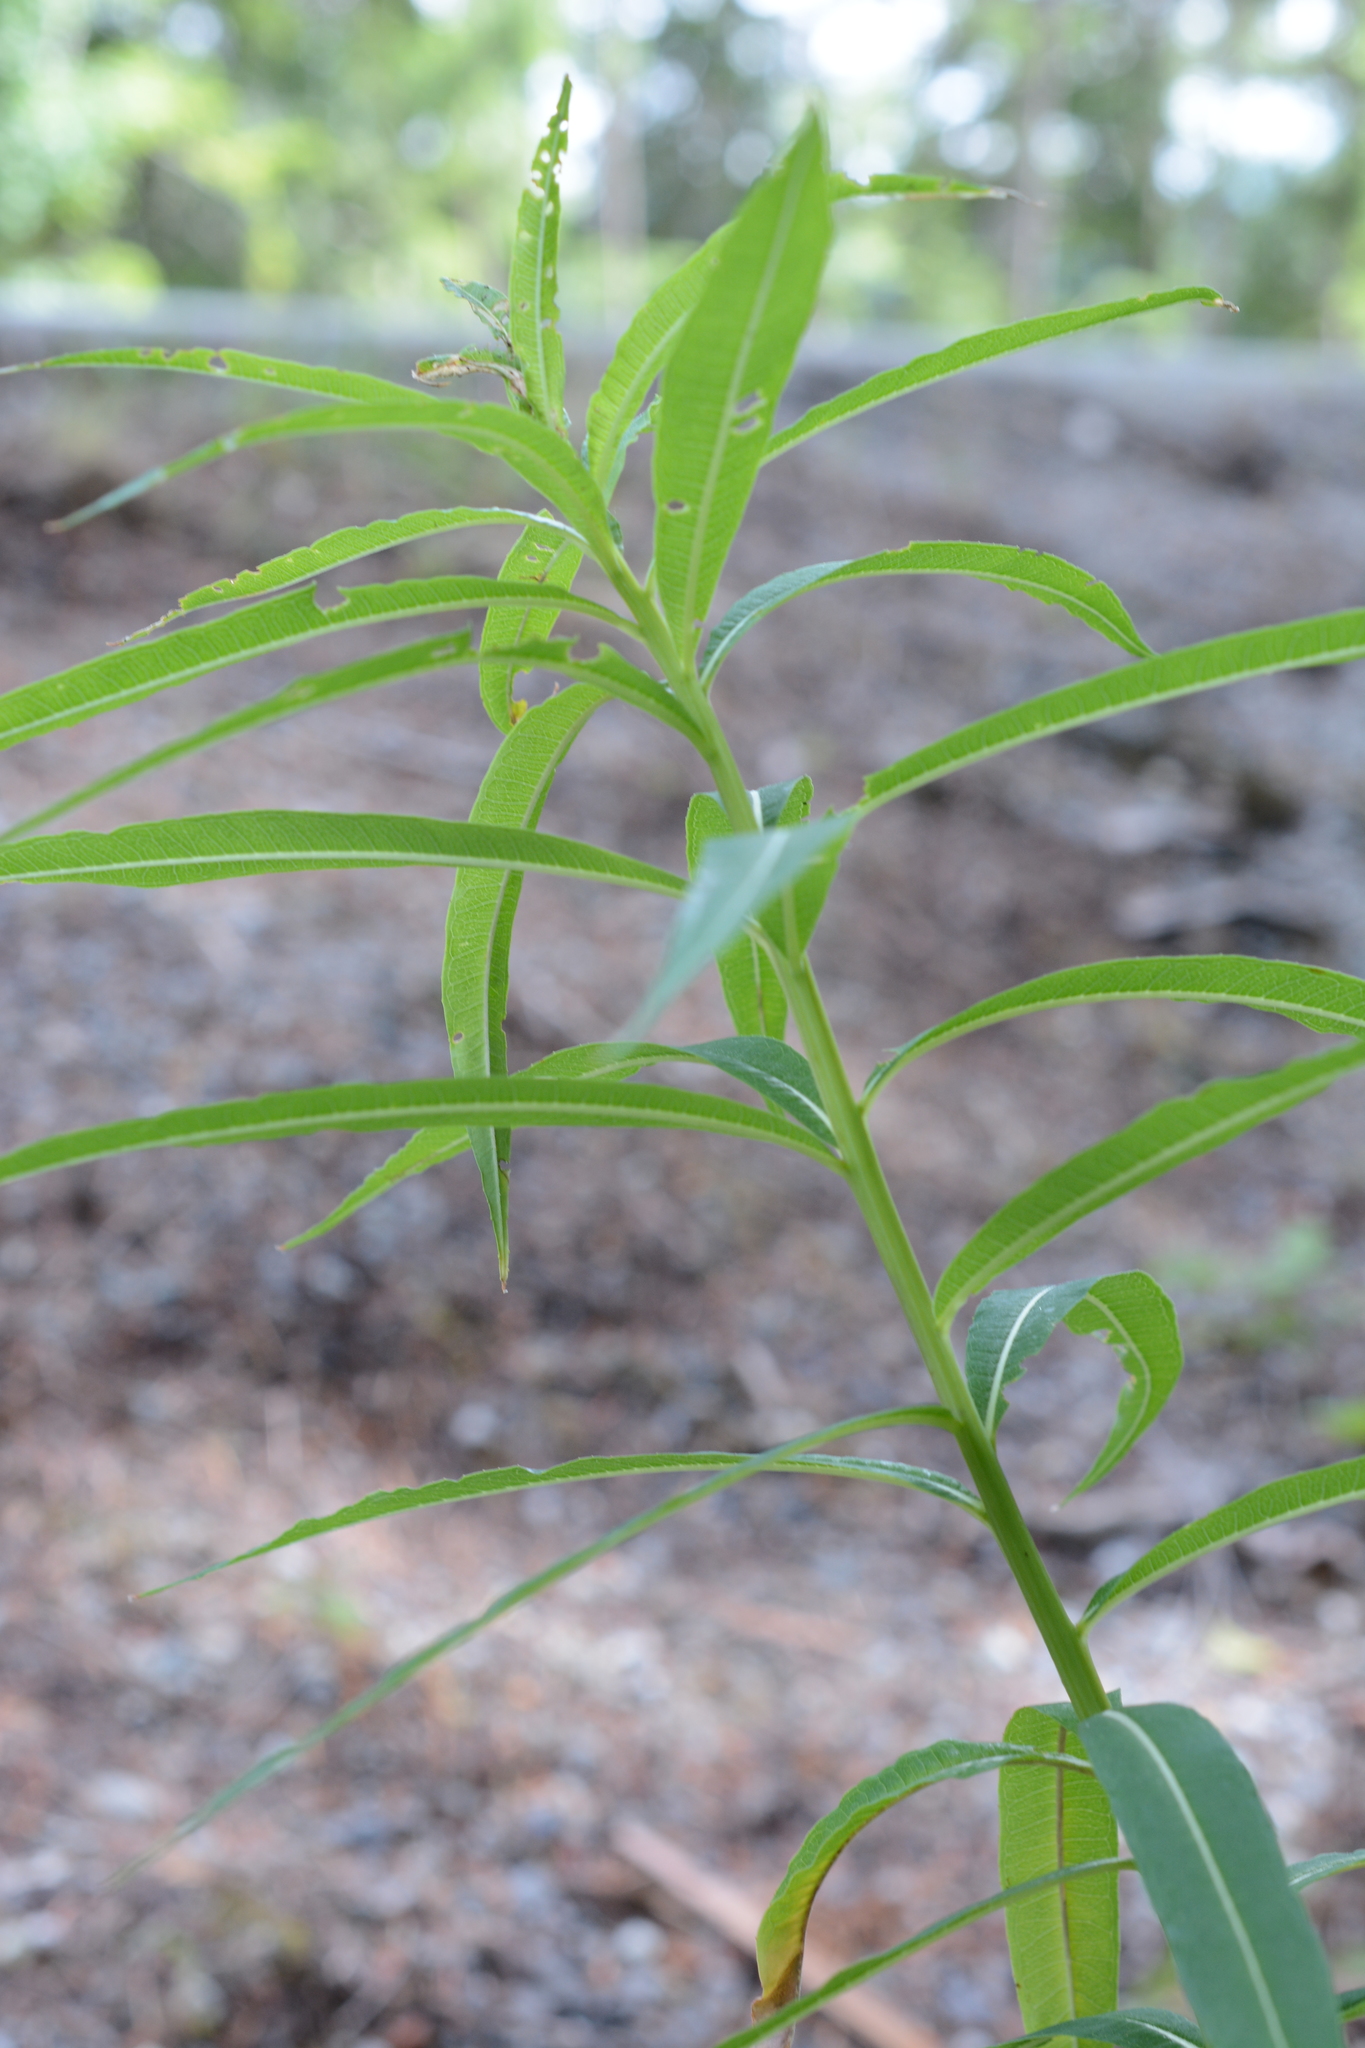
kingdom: Plantae
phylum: Tracheophyta
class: Magnoliopsida
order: Myrtales
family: Onagraceae
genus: Chamaenerion
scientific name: Chamaenerion angustifolium
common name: Fireweed
